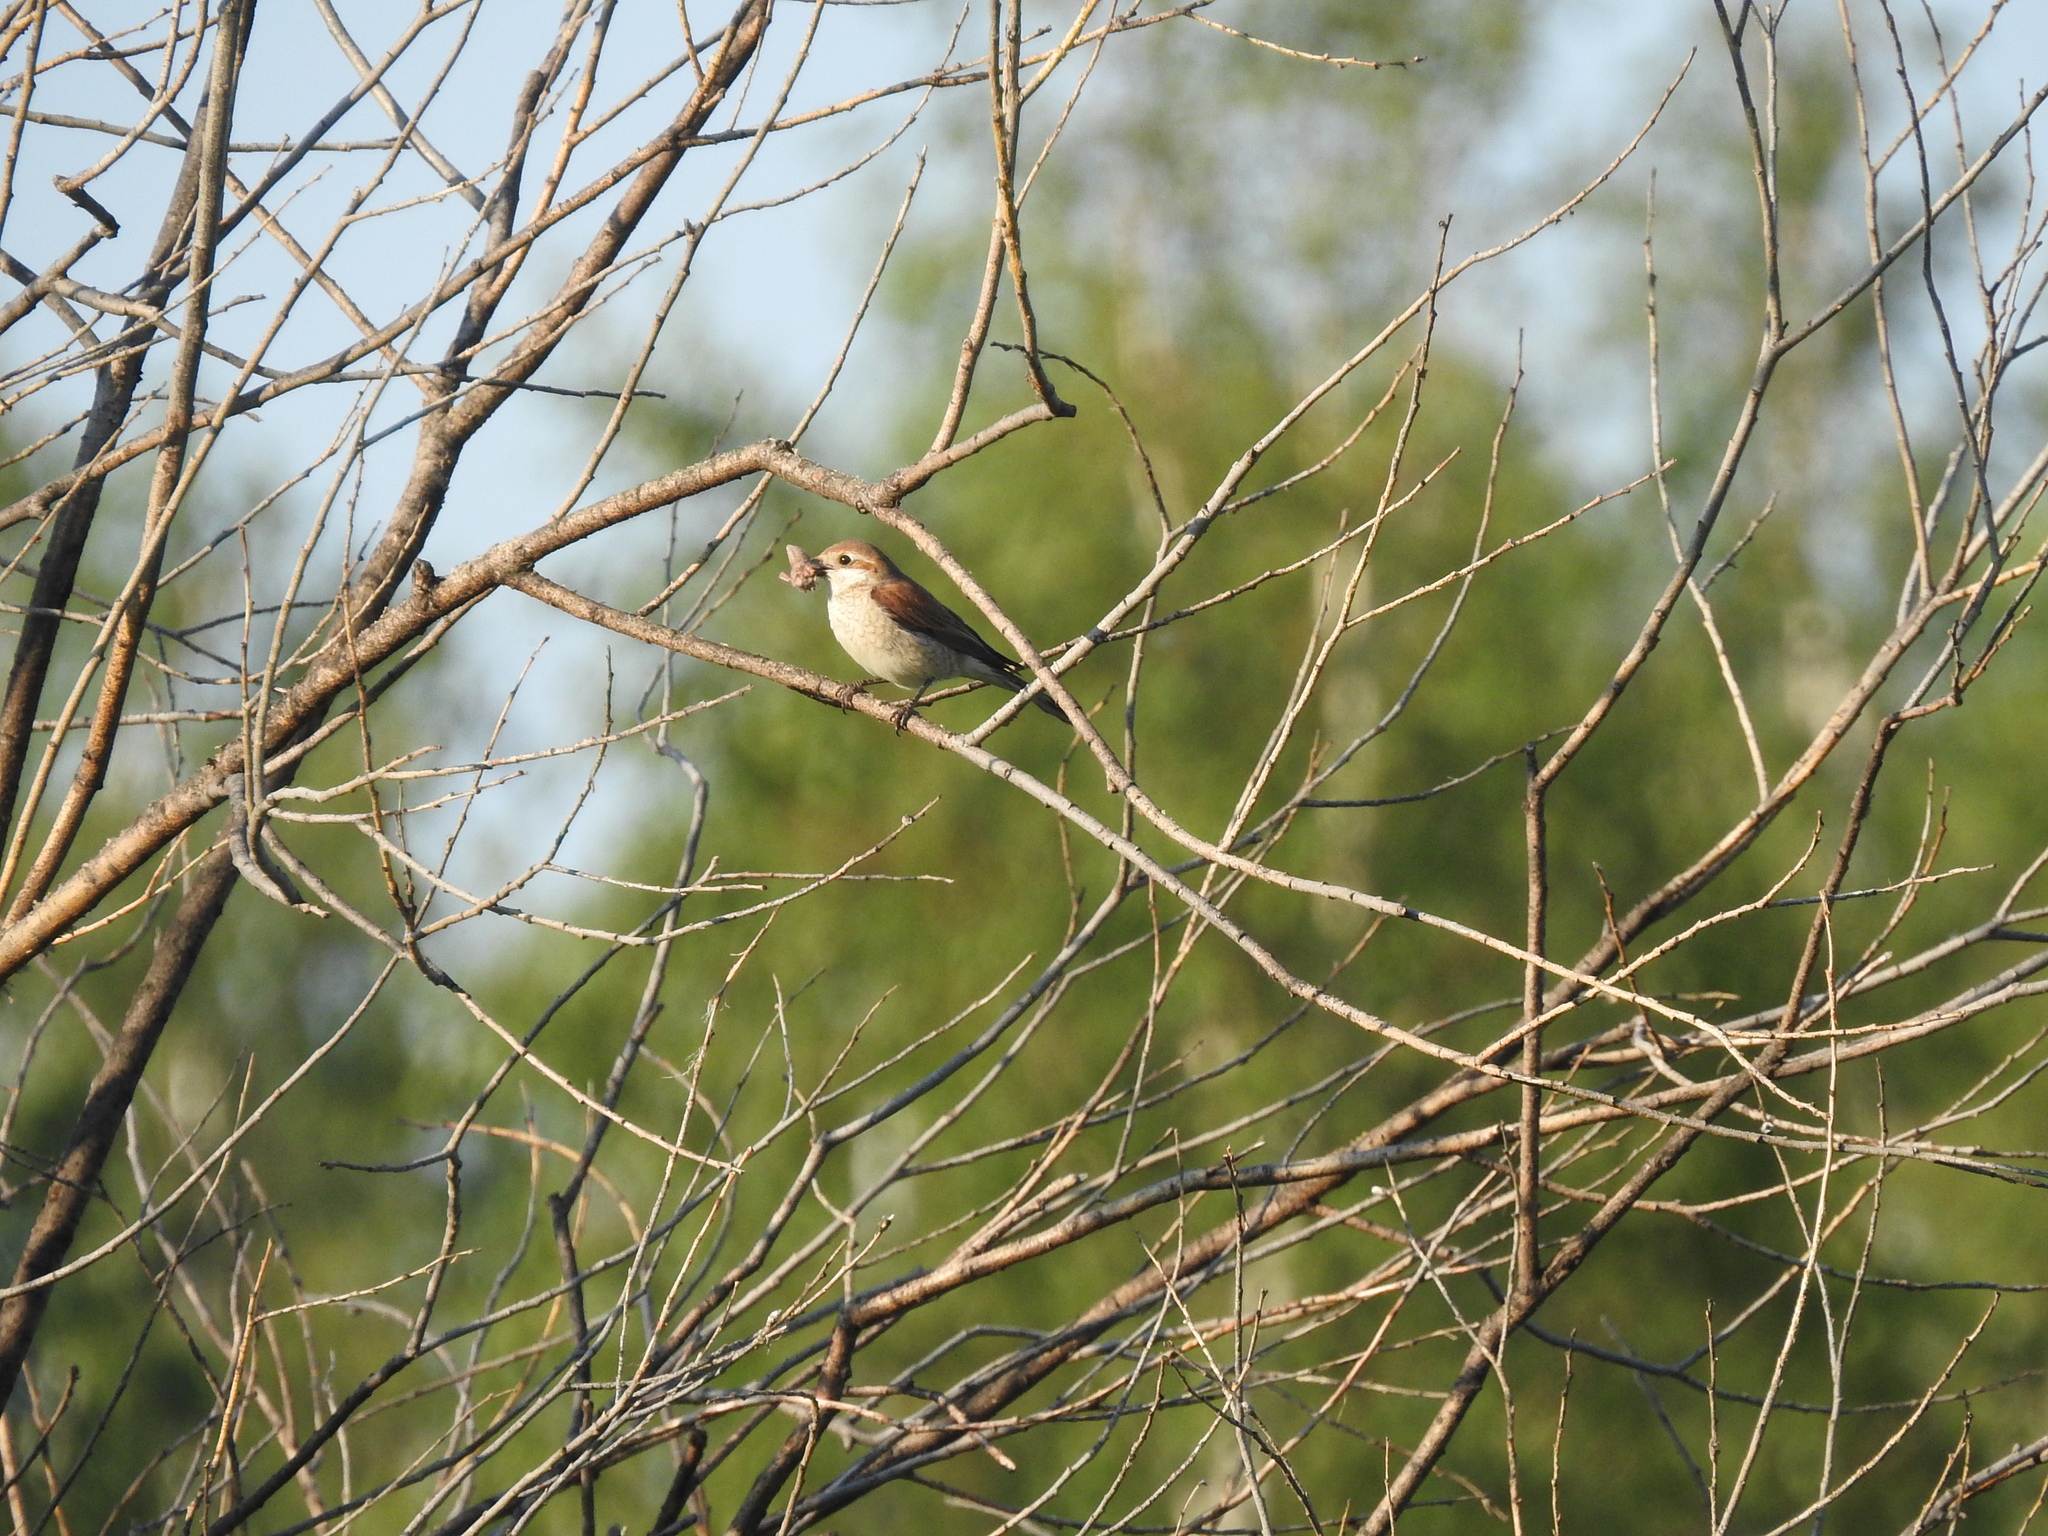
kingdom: Animalia
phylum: Chordata
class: Aves
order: Passeriformes
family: Laniidae
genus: Lanius
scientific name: Lanius collurio
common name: Red-backed shrike
